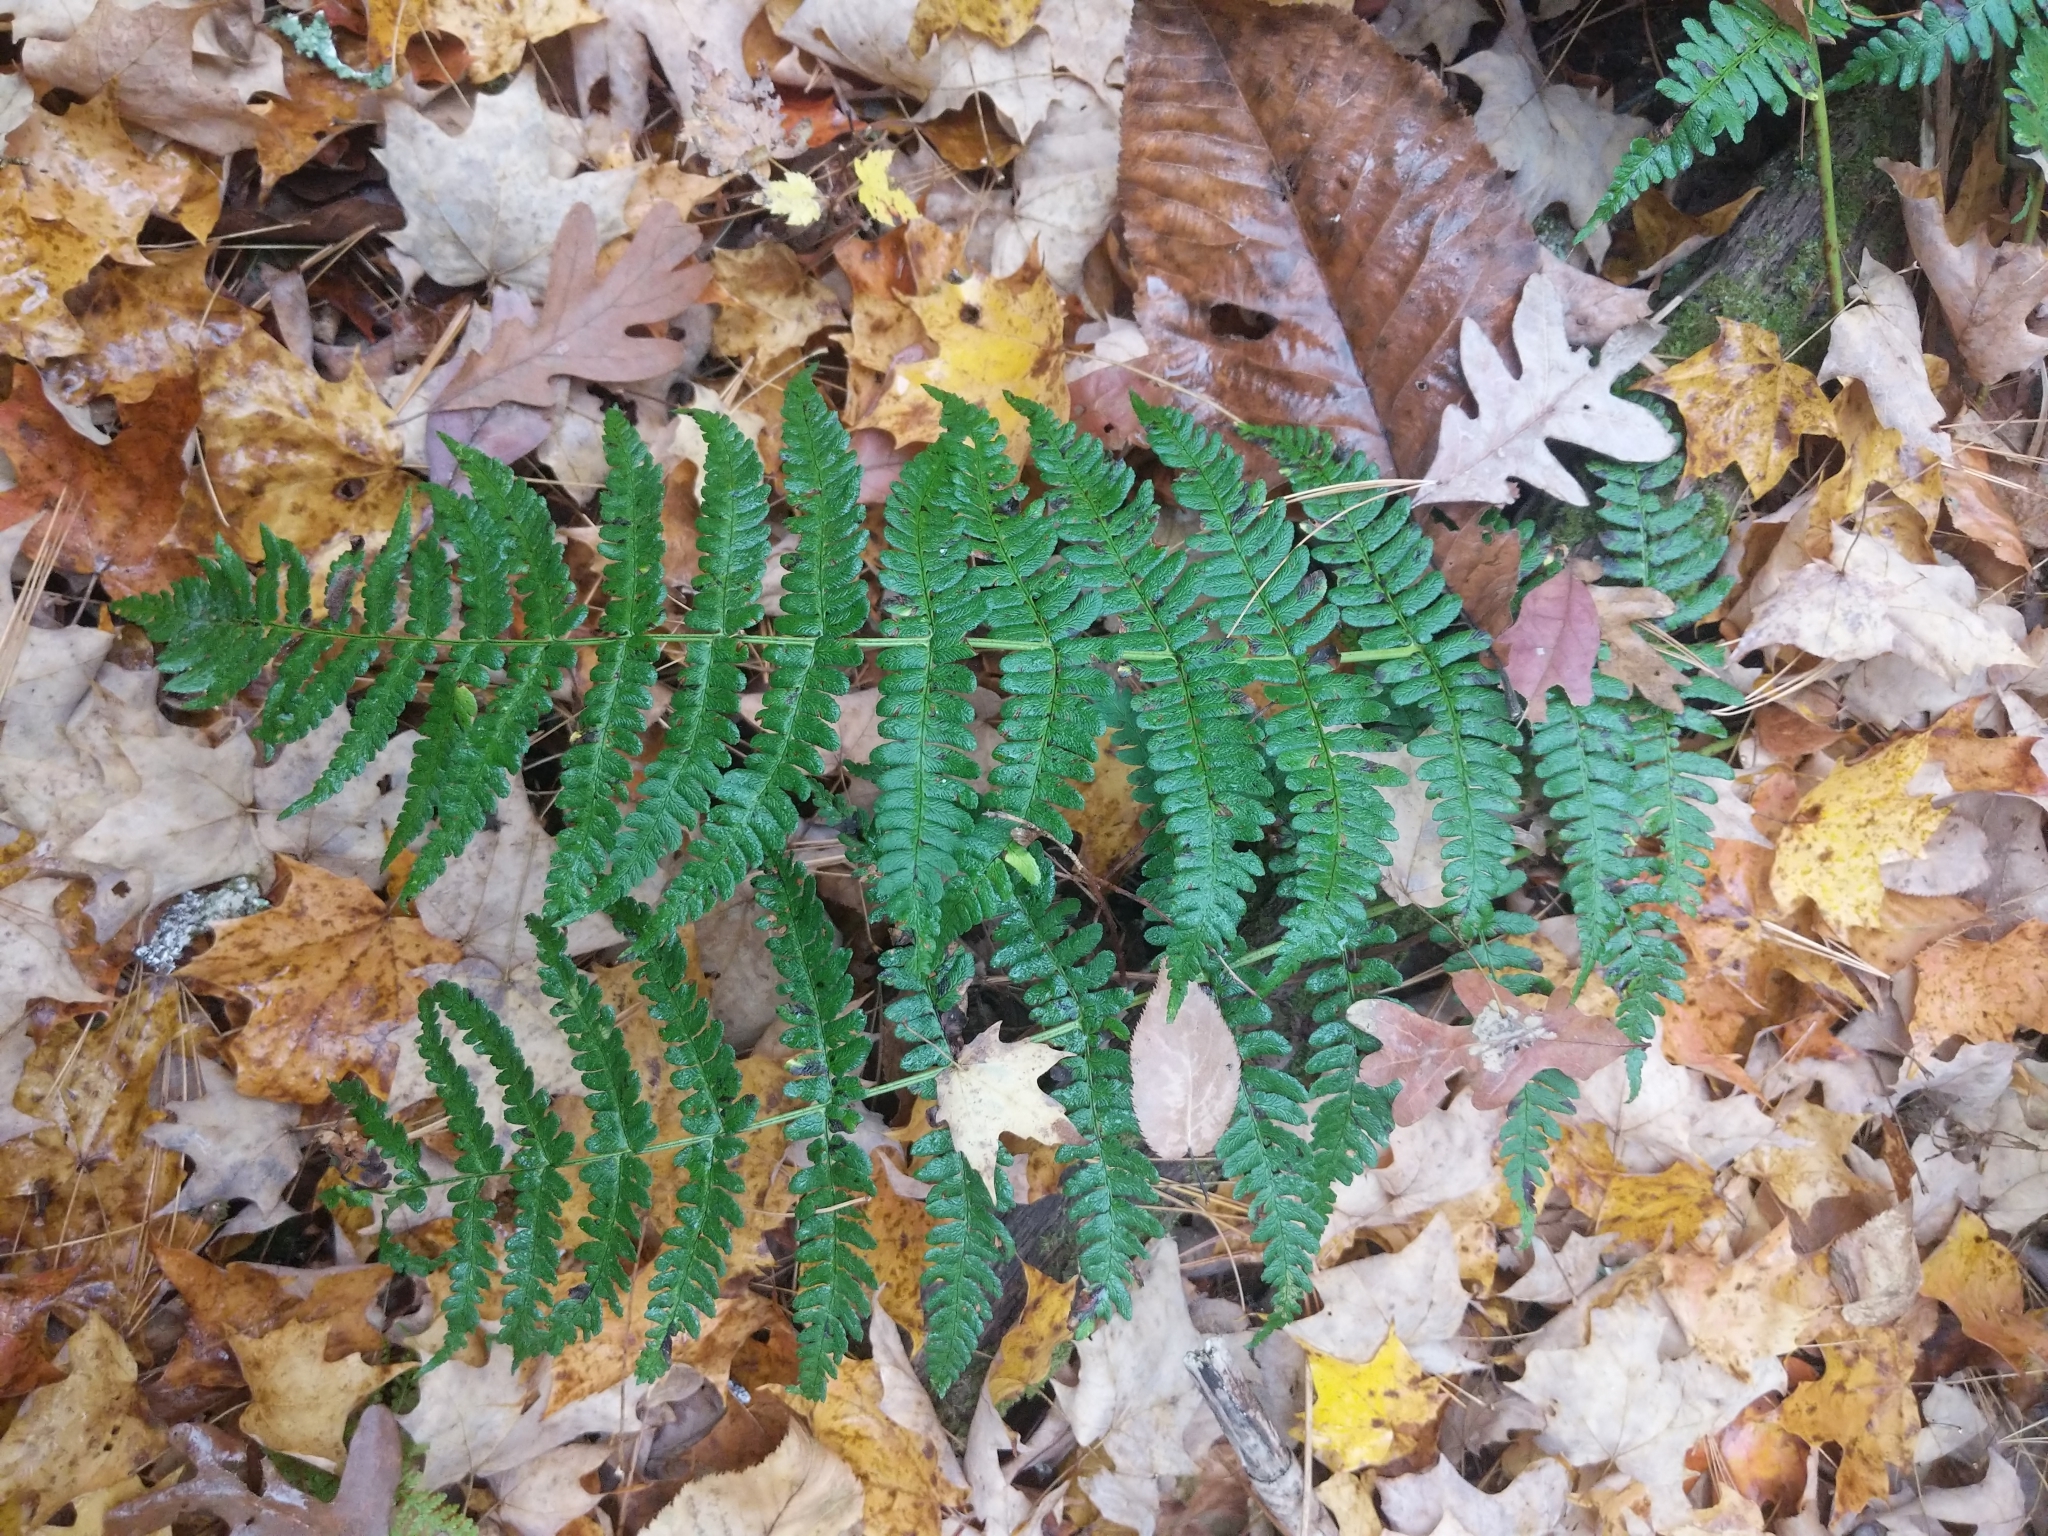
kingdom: Plantae
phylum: Tracheophyta
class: Polypodiopsida
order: Polypodiales
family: Dryopteridaceae
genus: Dryopteris
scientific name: Dryopteris marginalis
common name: Marginal wood fern
